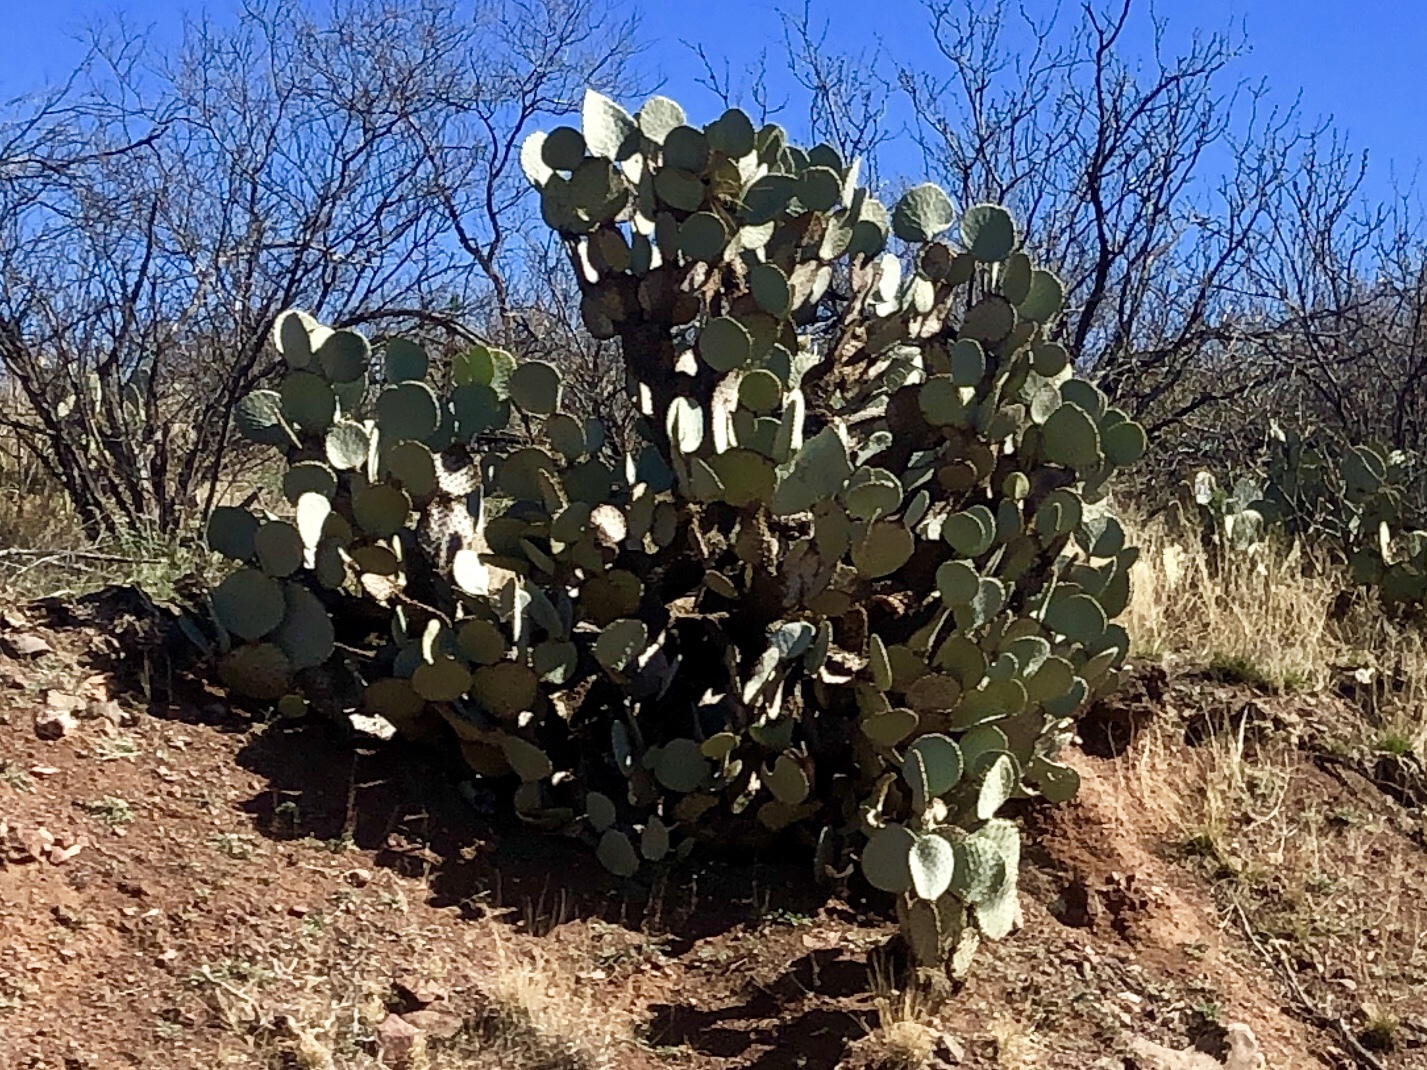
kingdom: Plantae
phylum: Tracheophyta
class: Magnoliopsida
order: Caryophyllales
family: Cactaceae
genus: Opuntia
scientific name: Opuntia gosseliniana
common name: Violet prickly-pear
